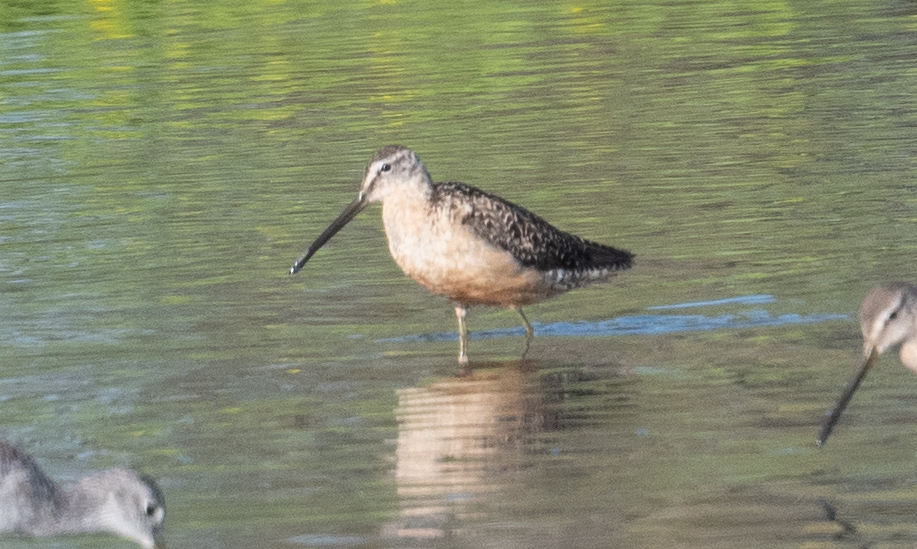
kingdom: Animalia
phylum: Chordata
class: Aves
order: Charadriiformes
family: Scolopacidae
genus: Limnodromus
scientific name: Limnodromus scolopaceus
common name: Long-billed dowitcher
